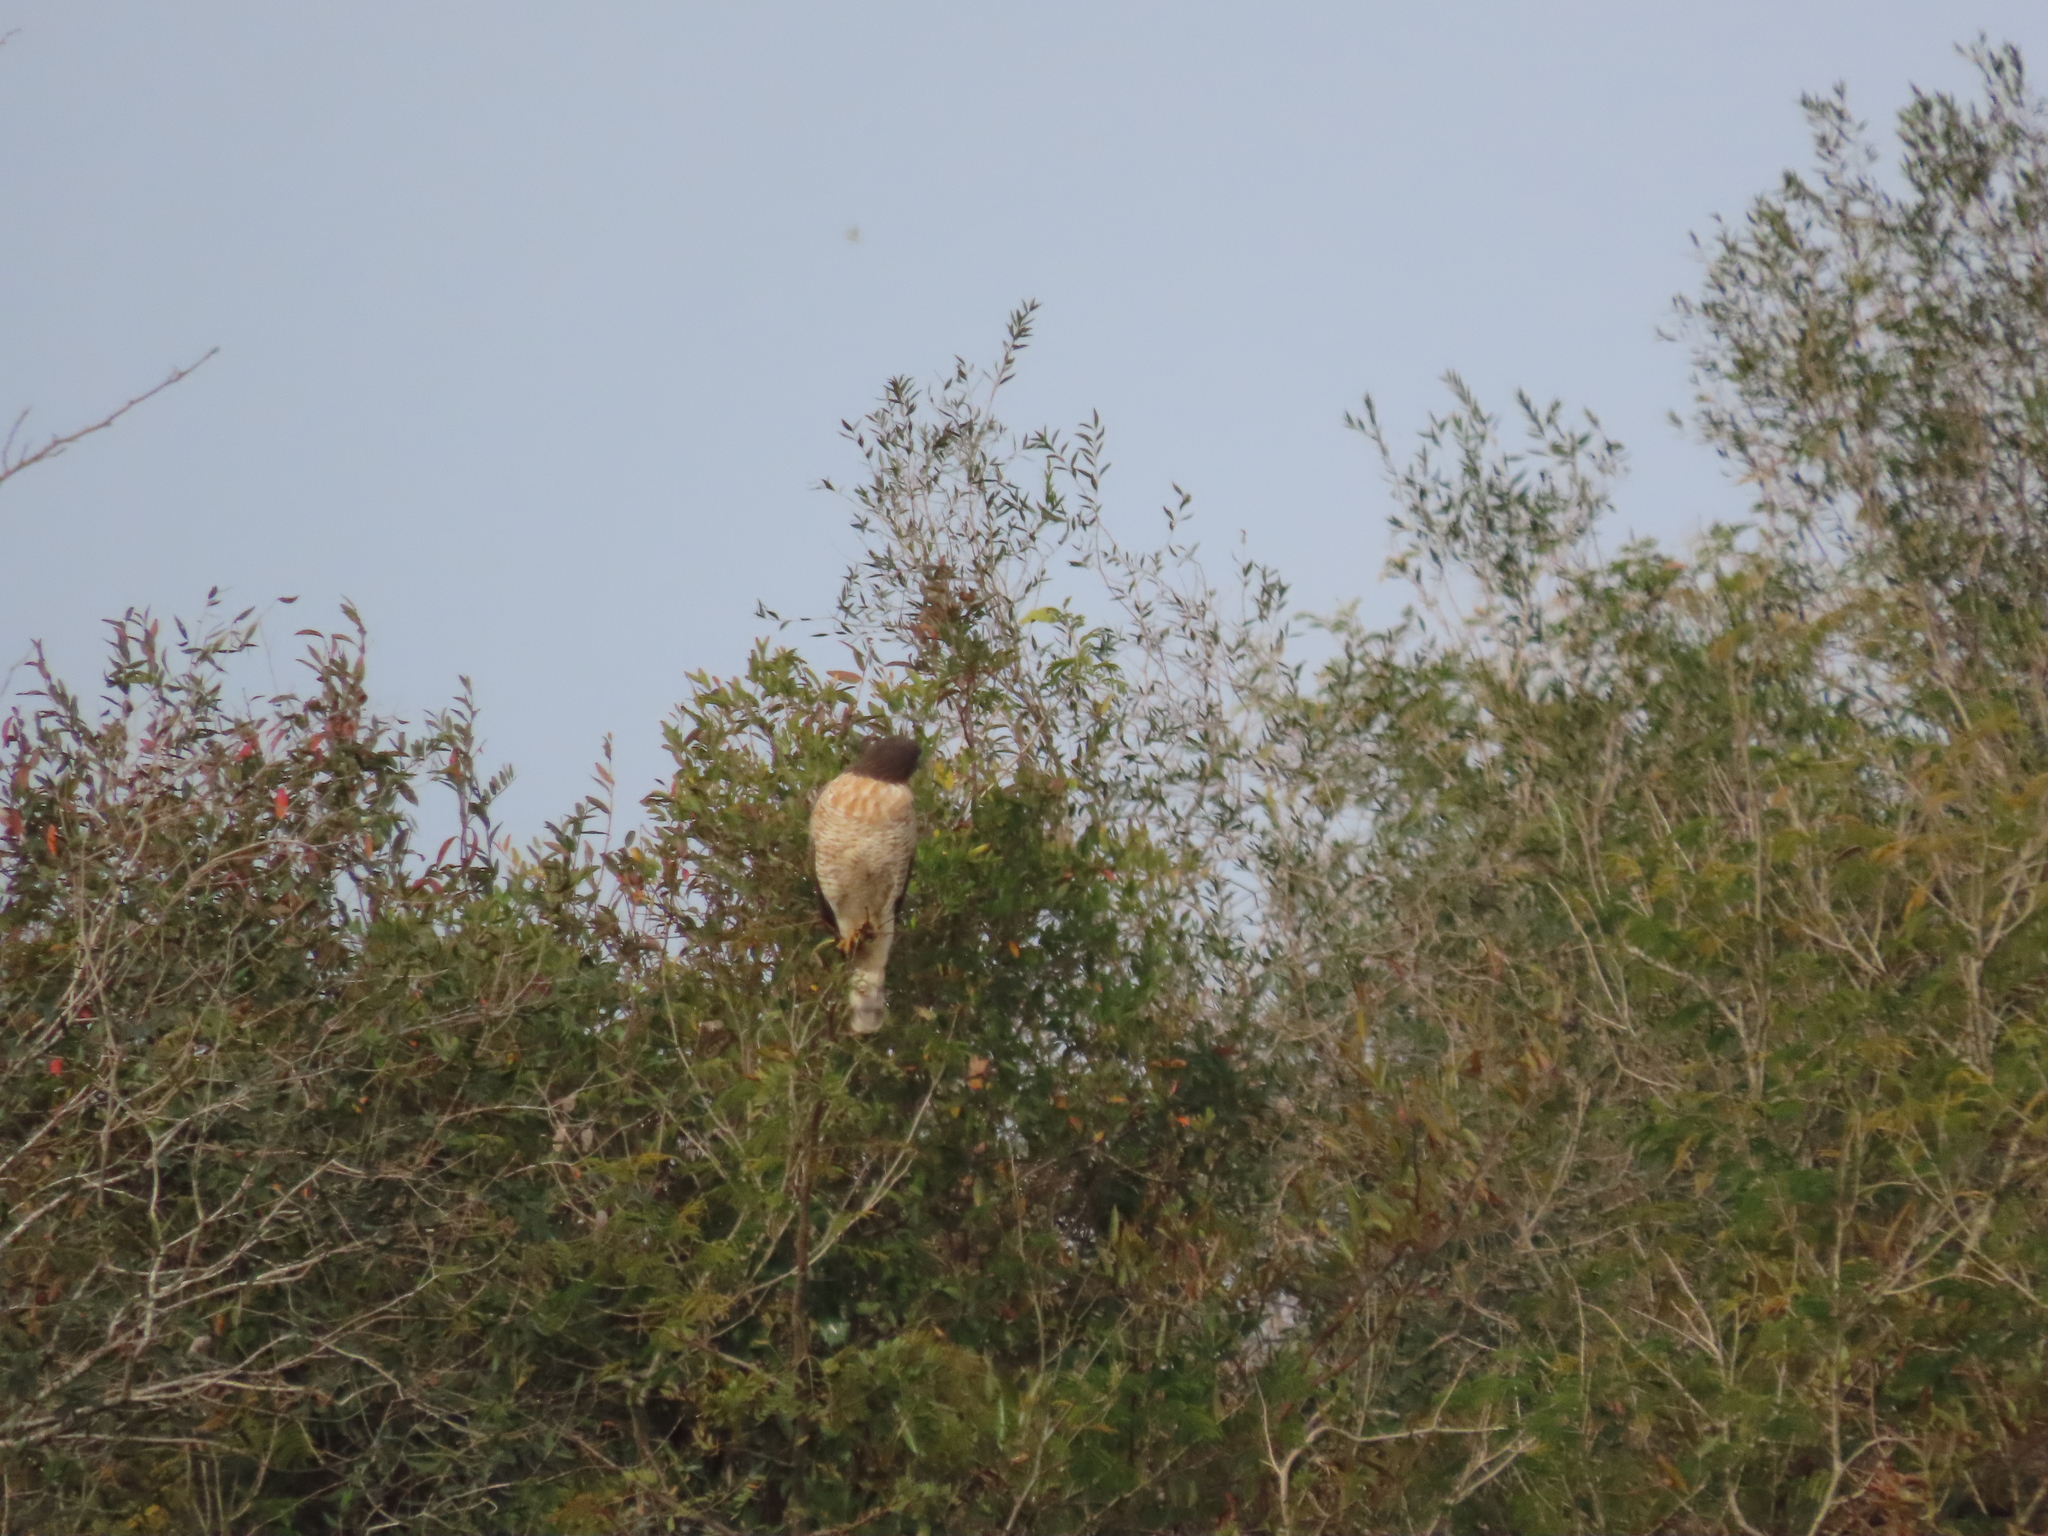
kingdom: Animalia
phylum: Chordata
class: Aves
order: Accipitriformes
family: Accipitridae
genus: Rupornis
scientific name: Rupornis magnirostris
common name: Roadside hawk
